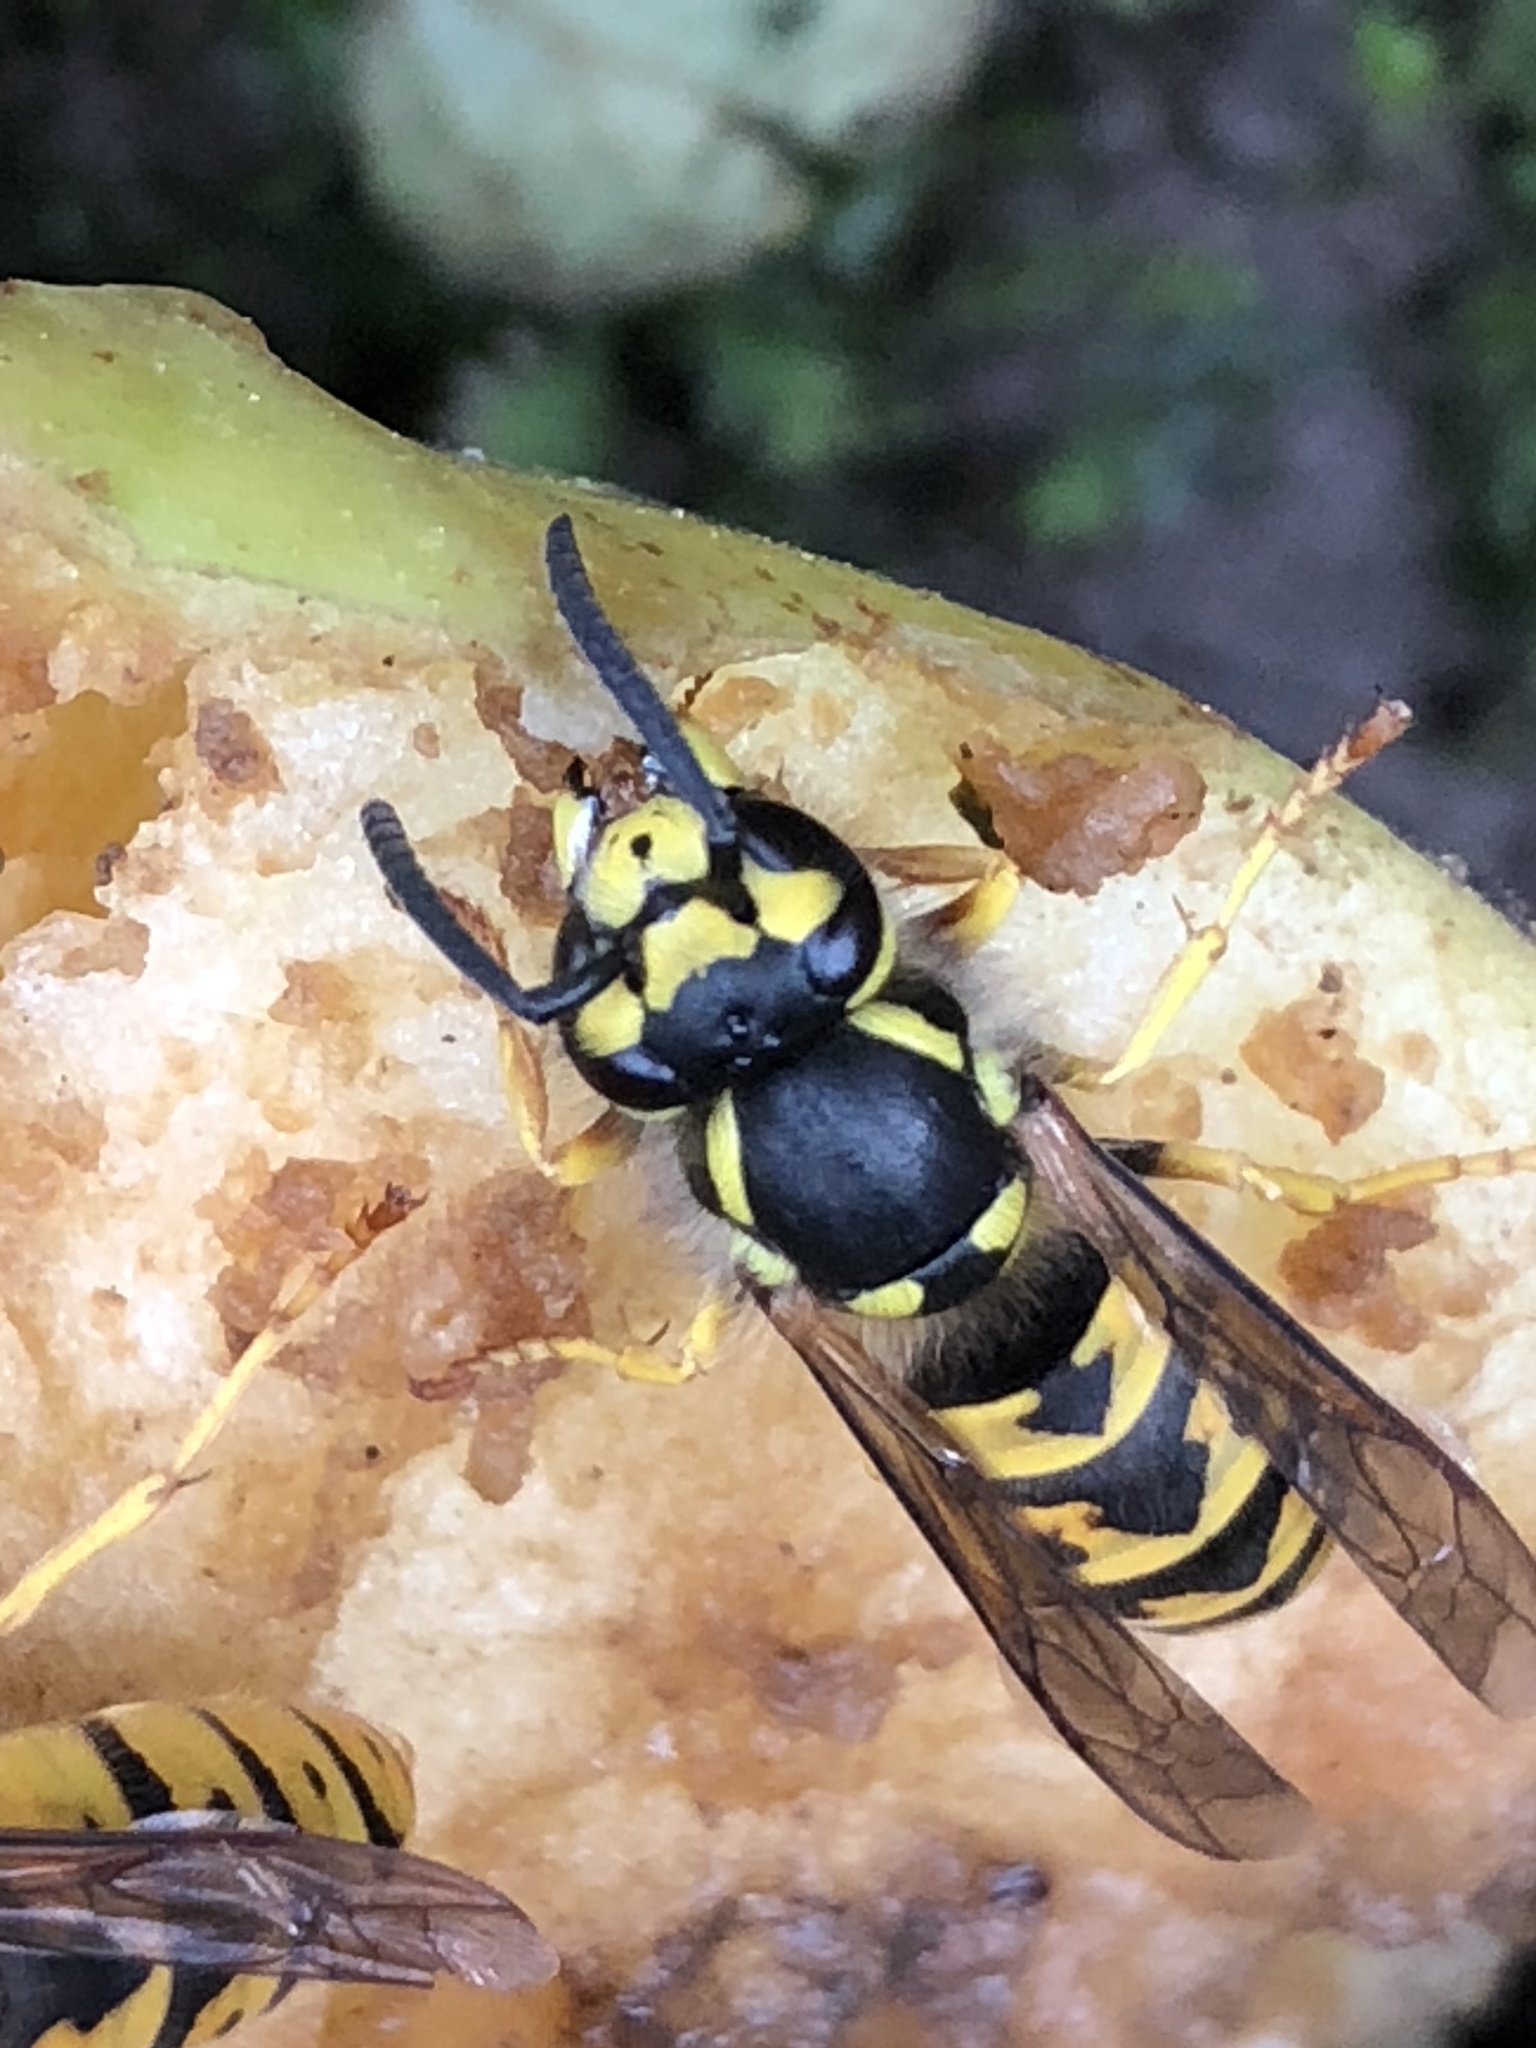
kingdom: Animalia
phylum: Arthropoda
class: Insecta
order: Hymenoptera
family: Vespidae
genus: Vespula
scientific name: Vespula germanica
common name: German wasp
